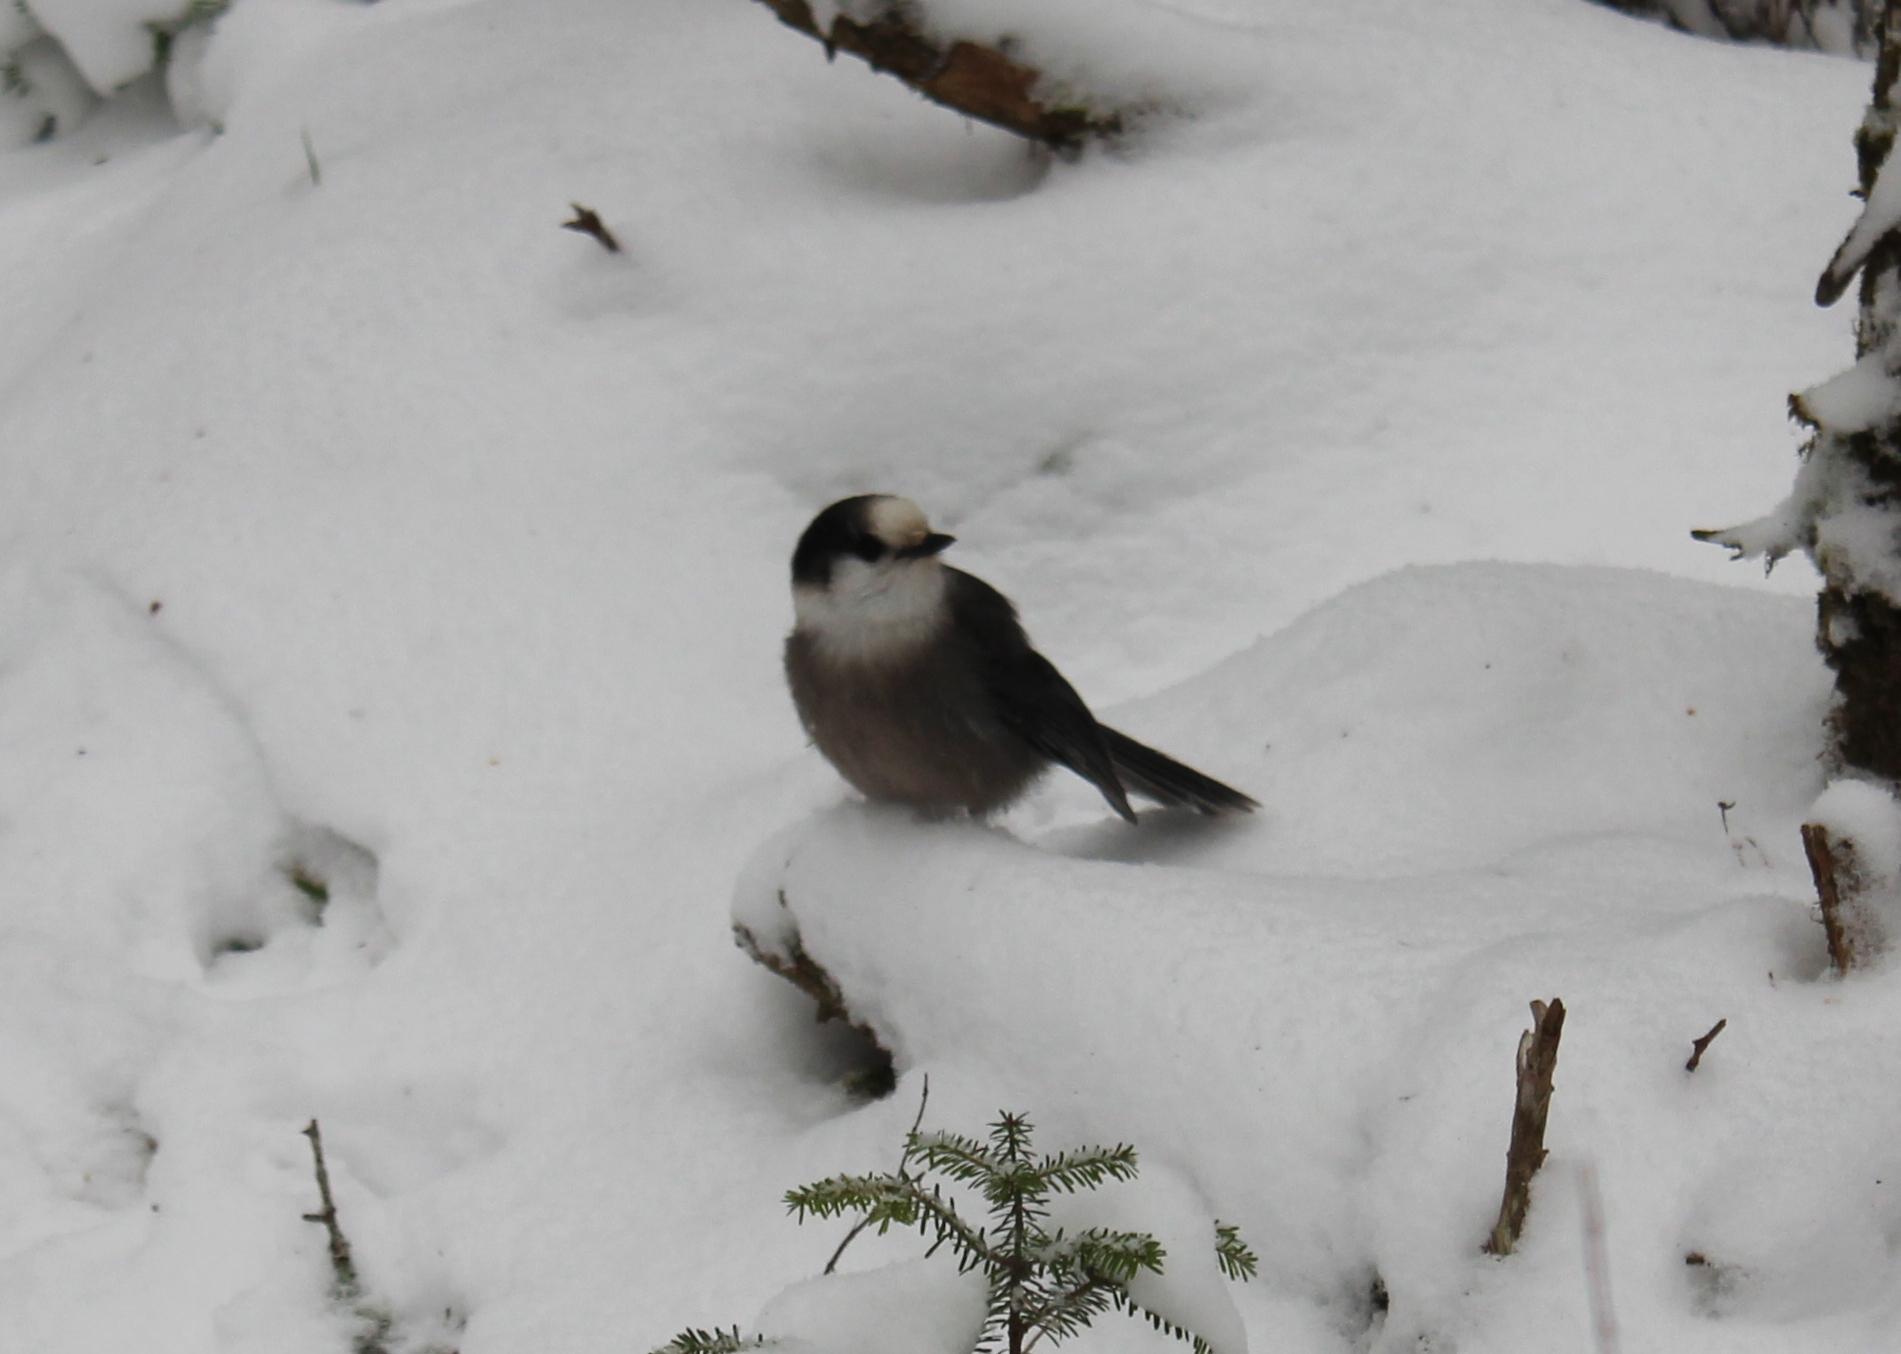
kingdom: Animalia
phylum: Chordata
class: Aves
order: Passeriformes
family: Corvidae
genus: Perisoreus
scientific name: Perisoreus canadensis
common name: Gray jay
